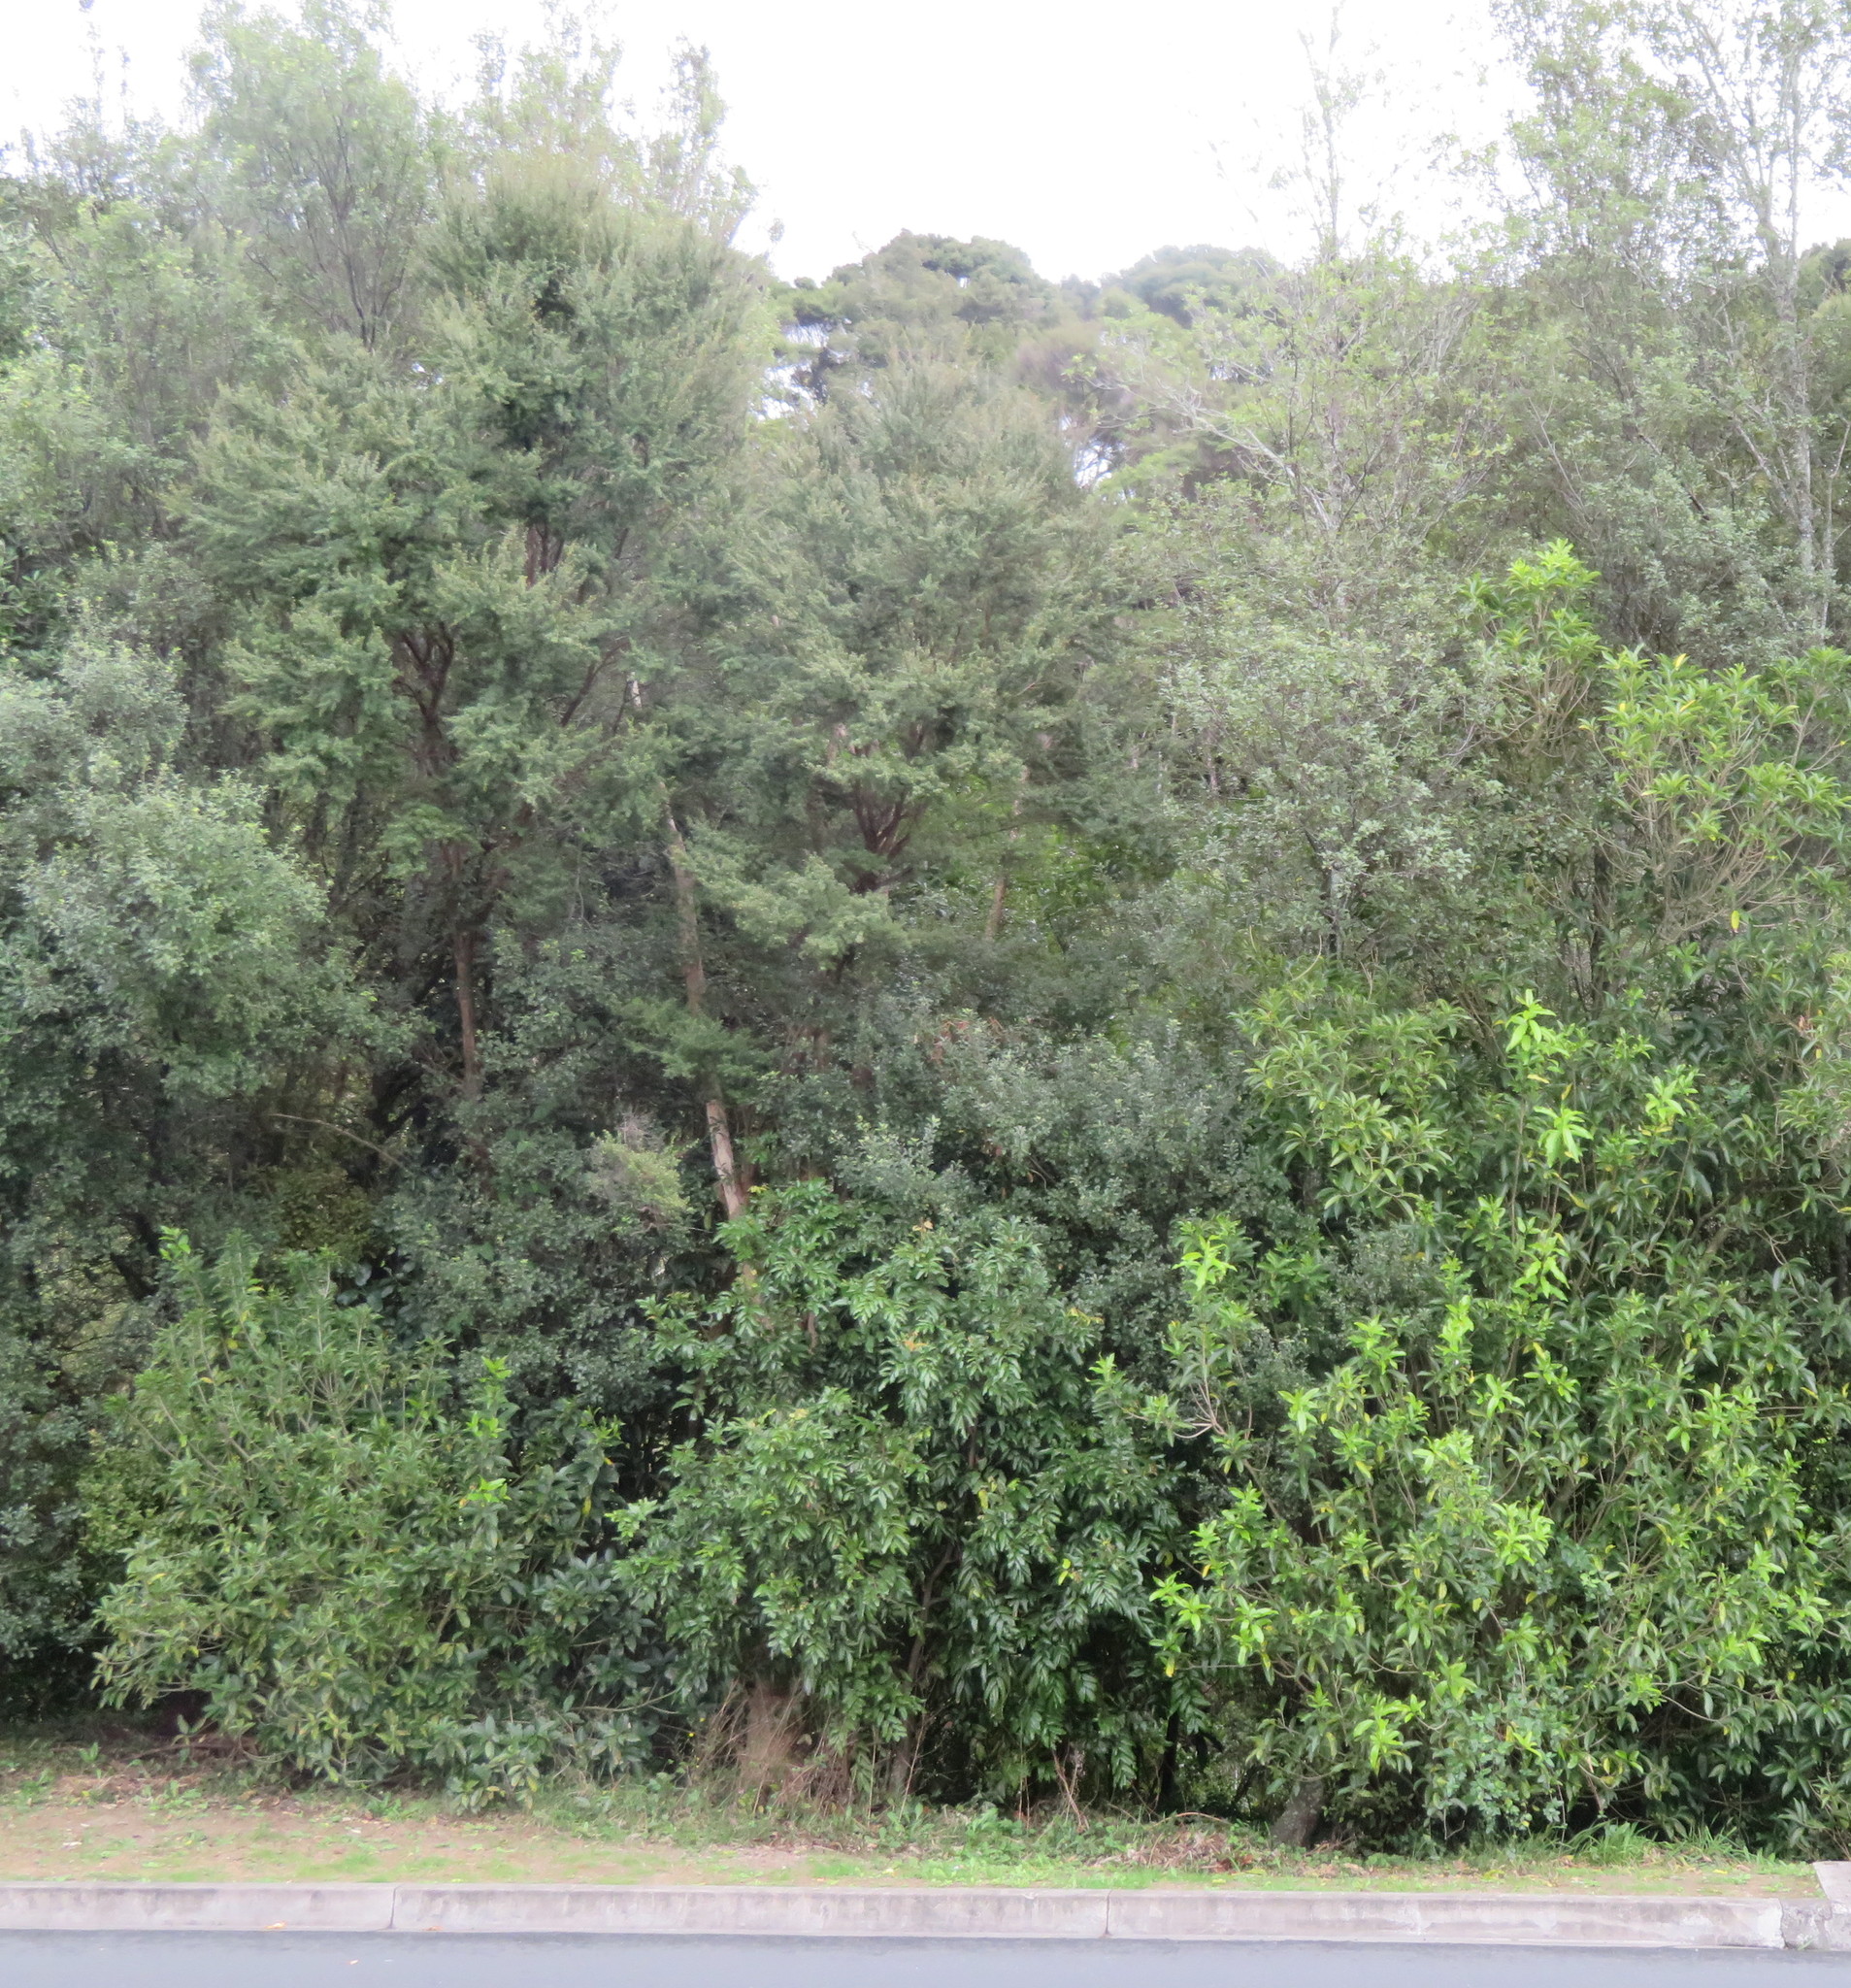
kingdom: Plantae
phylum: Tracheophyta
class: Magnoliopsida
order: Sapindales
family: Sapindaceae
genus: Alectryon
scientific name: Alectryon excelsus
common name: Three kings titoki
